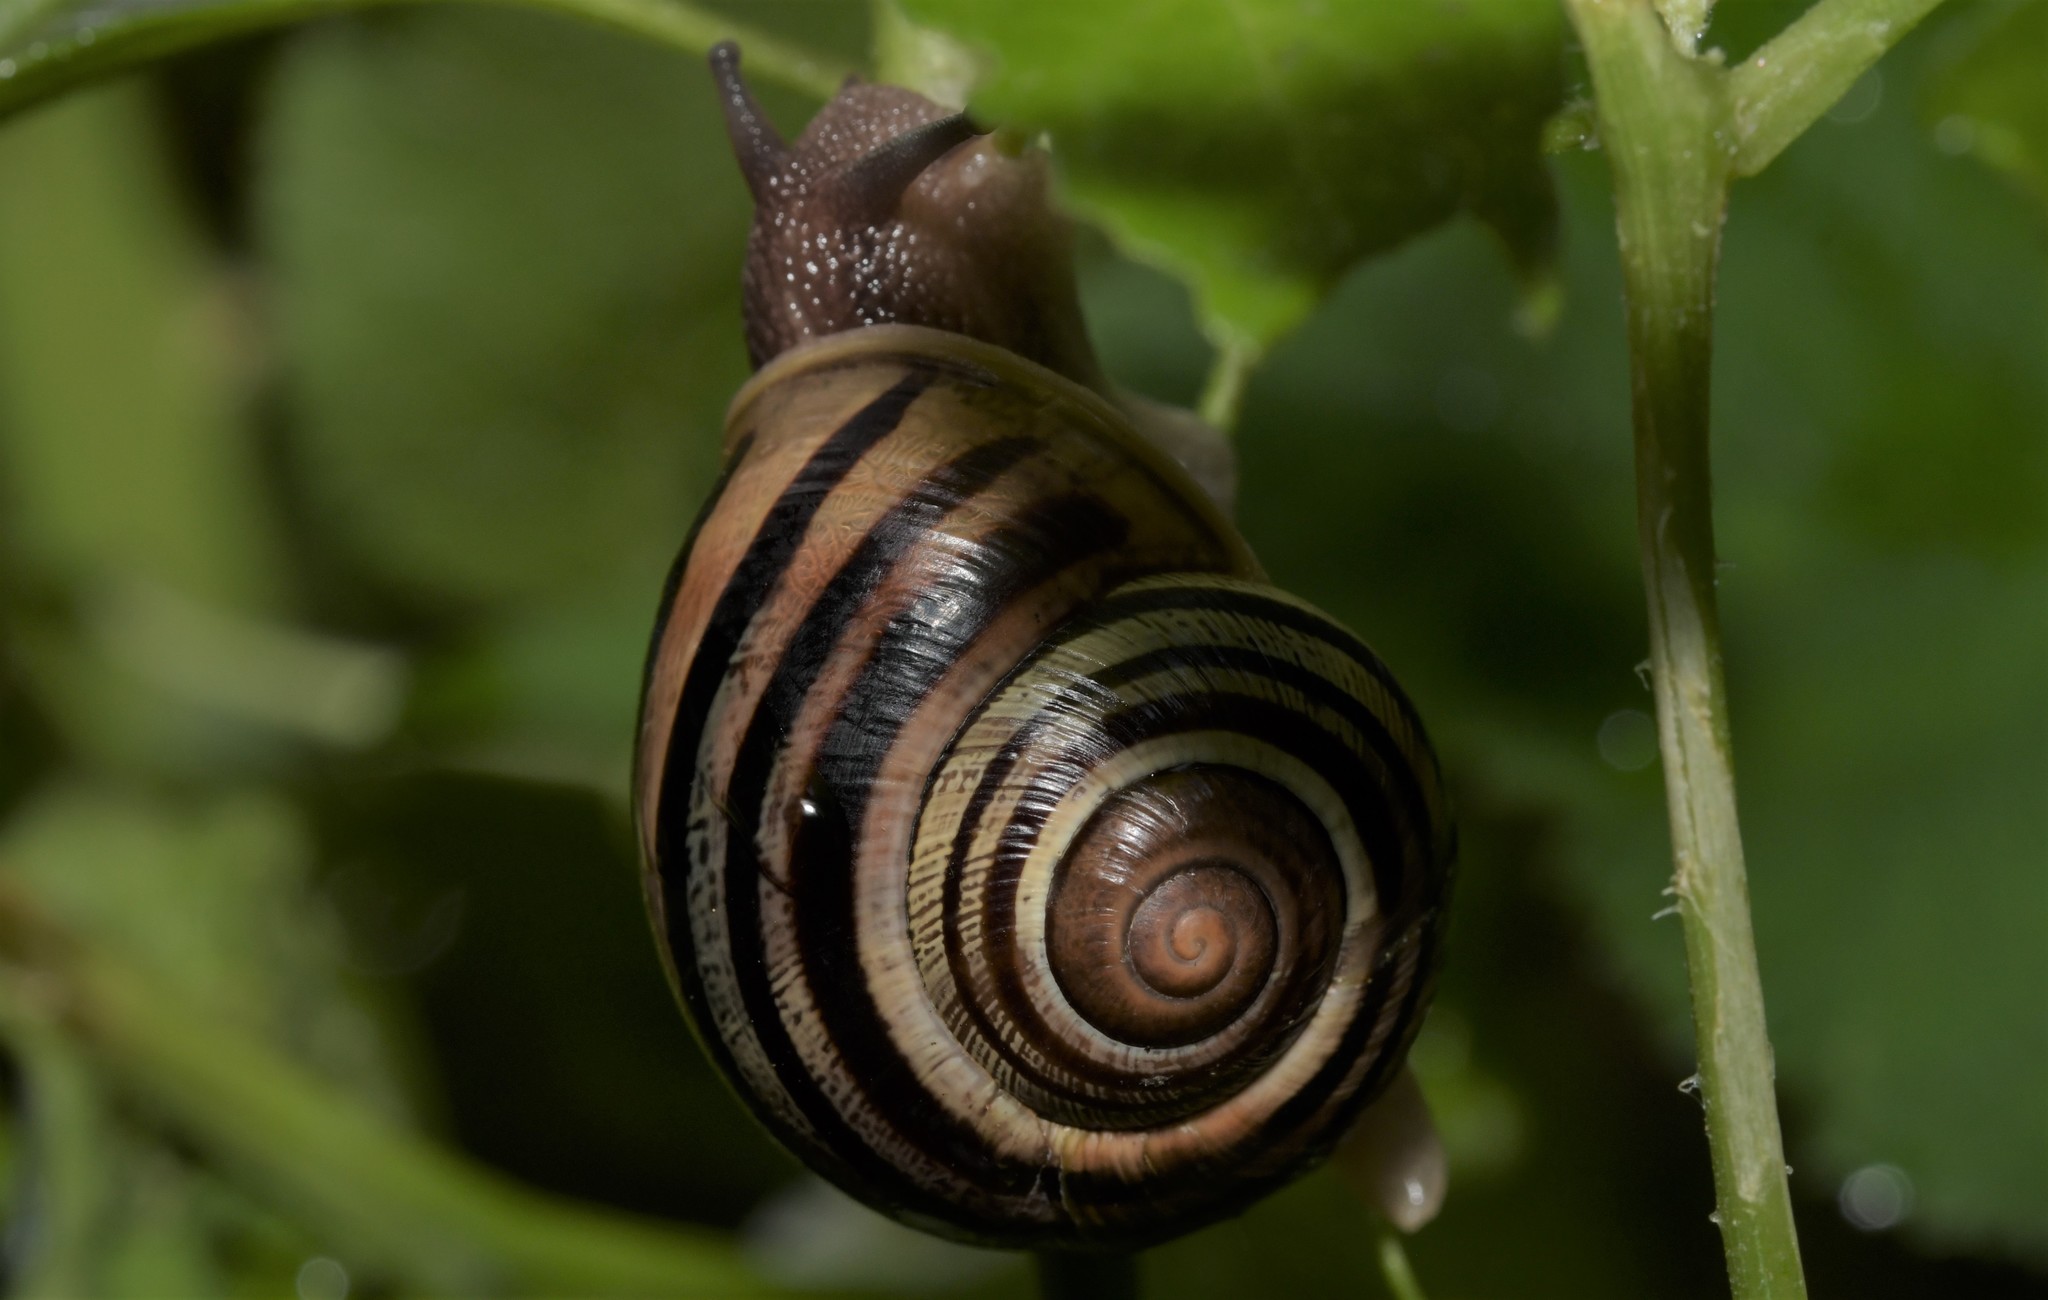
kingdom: Animalia
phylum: Mollusca
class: Gastropoda
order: Stylommatophora
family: Helicidae
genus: Cepaea
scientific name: Cepaea nemoralis
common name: Grovesnail
